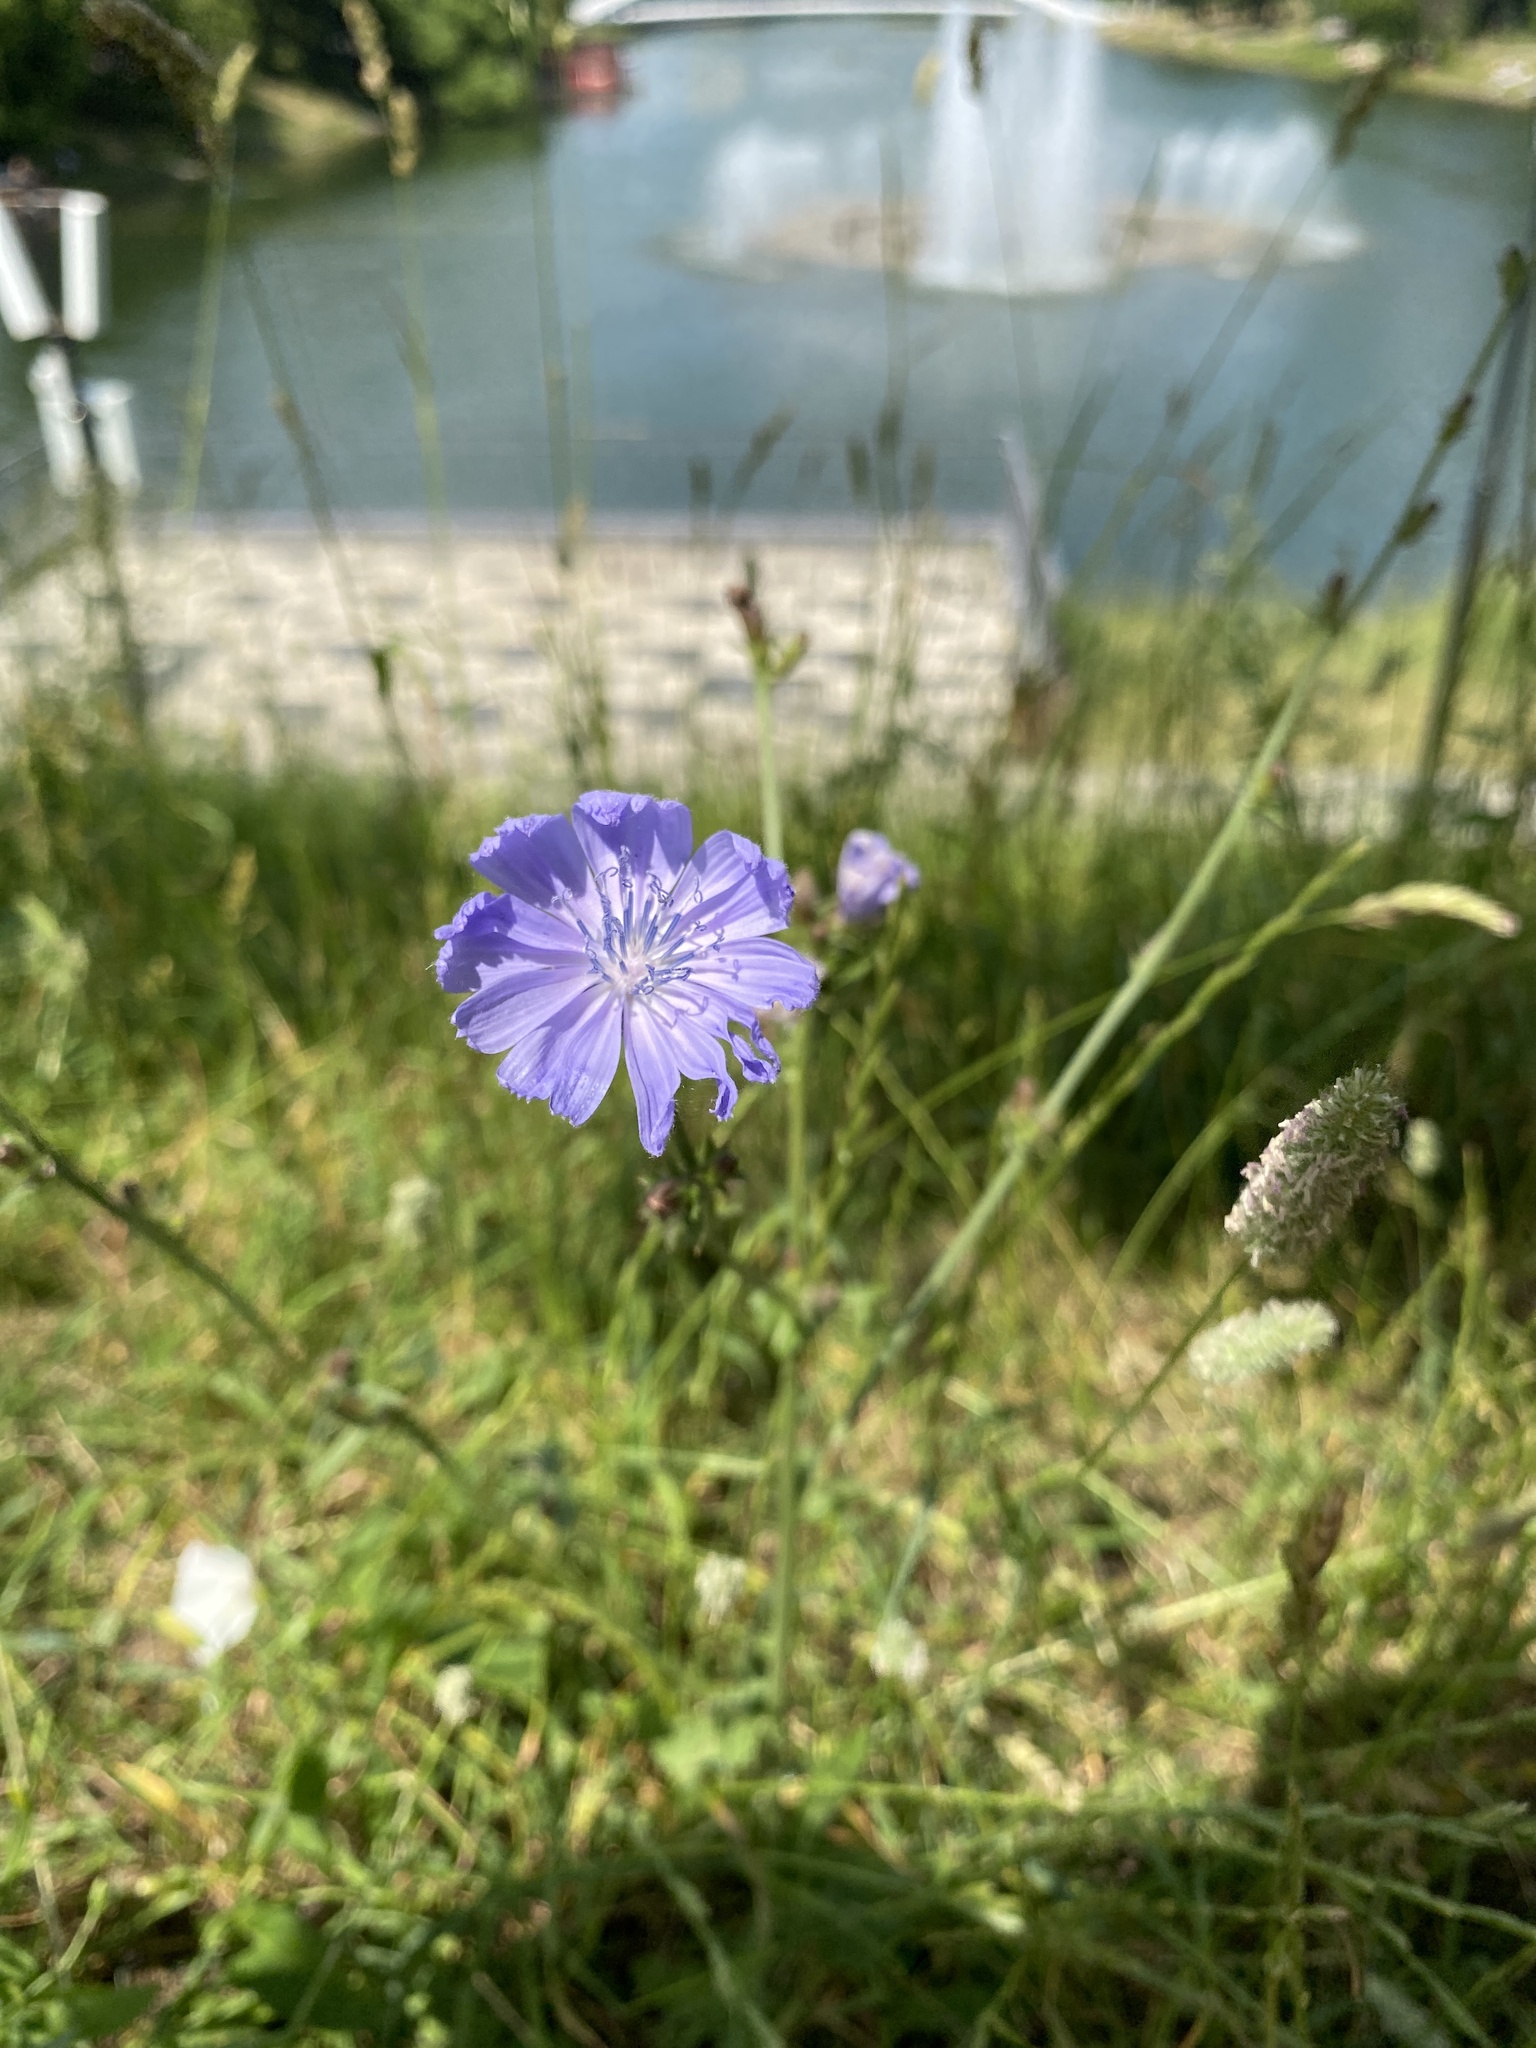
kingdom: Plantae
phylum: Tracheophyta
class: Magnoliopsida
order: Asterales
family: Asteraceae
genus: Cichorium
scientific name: Cichorium intybus
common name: Chicory
